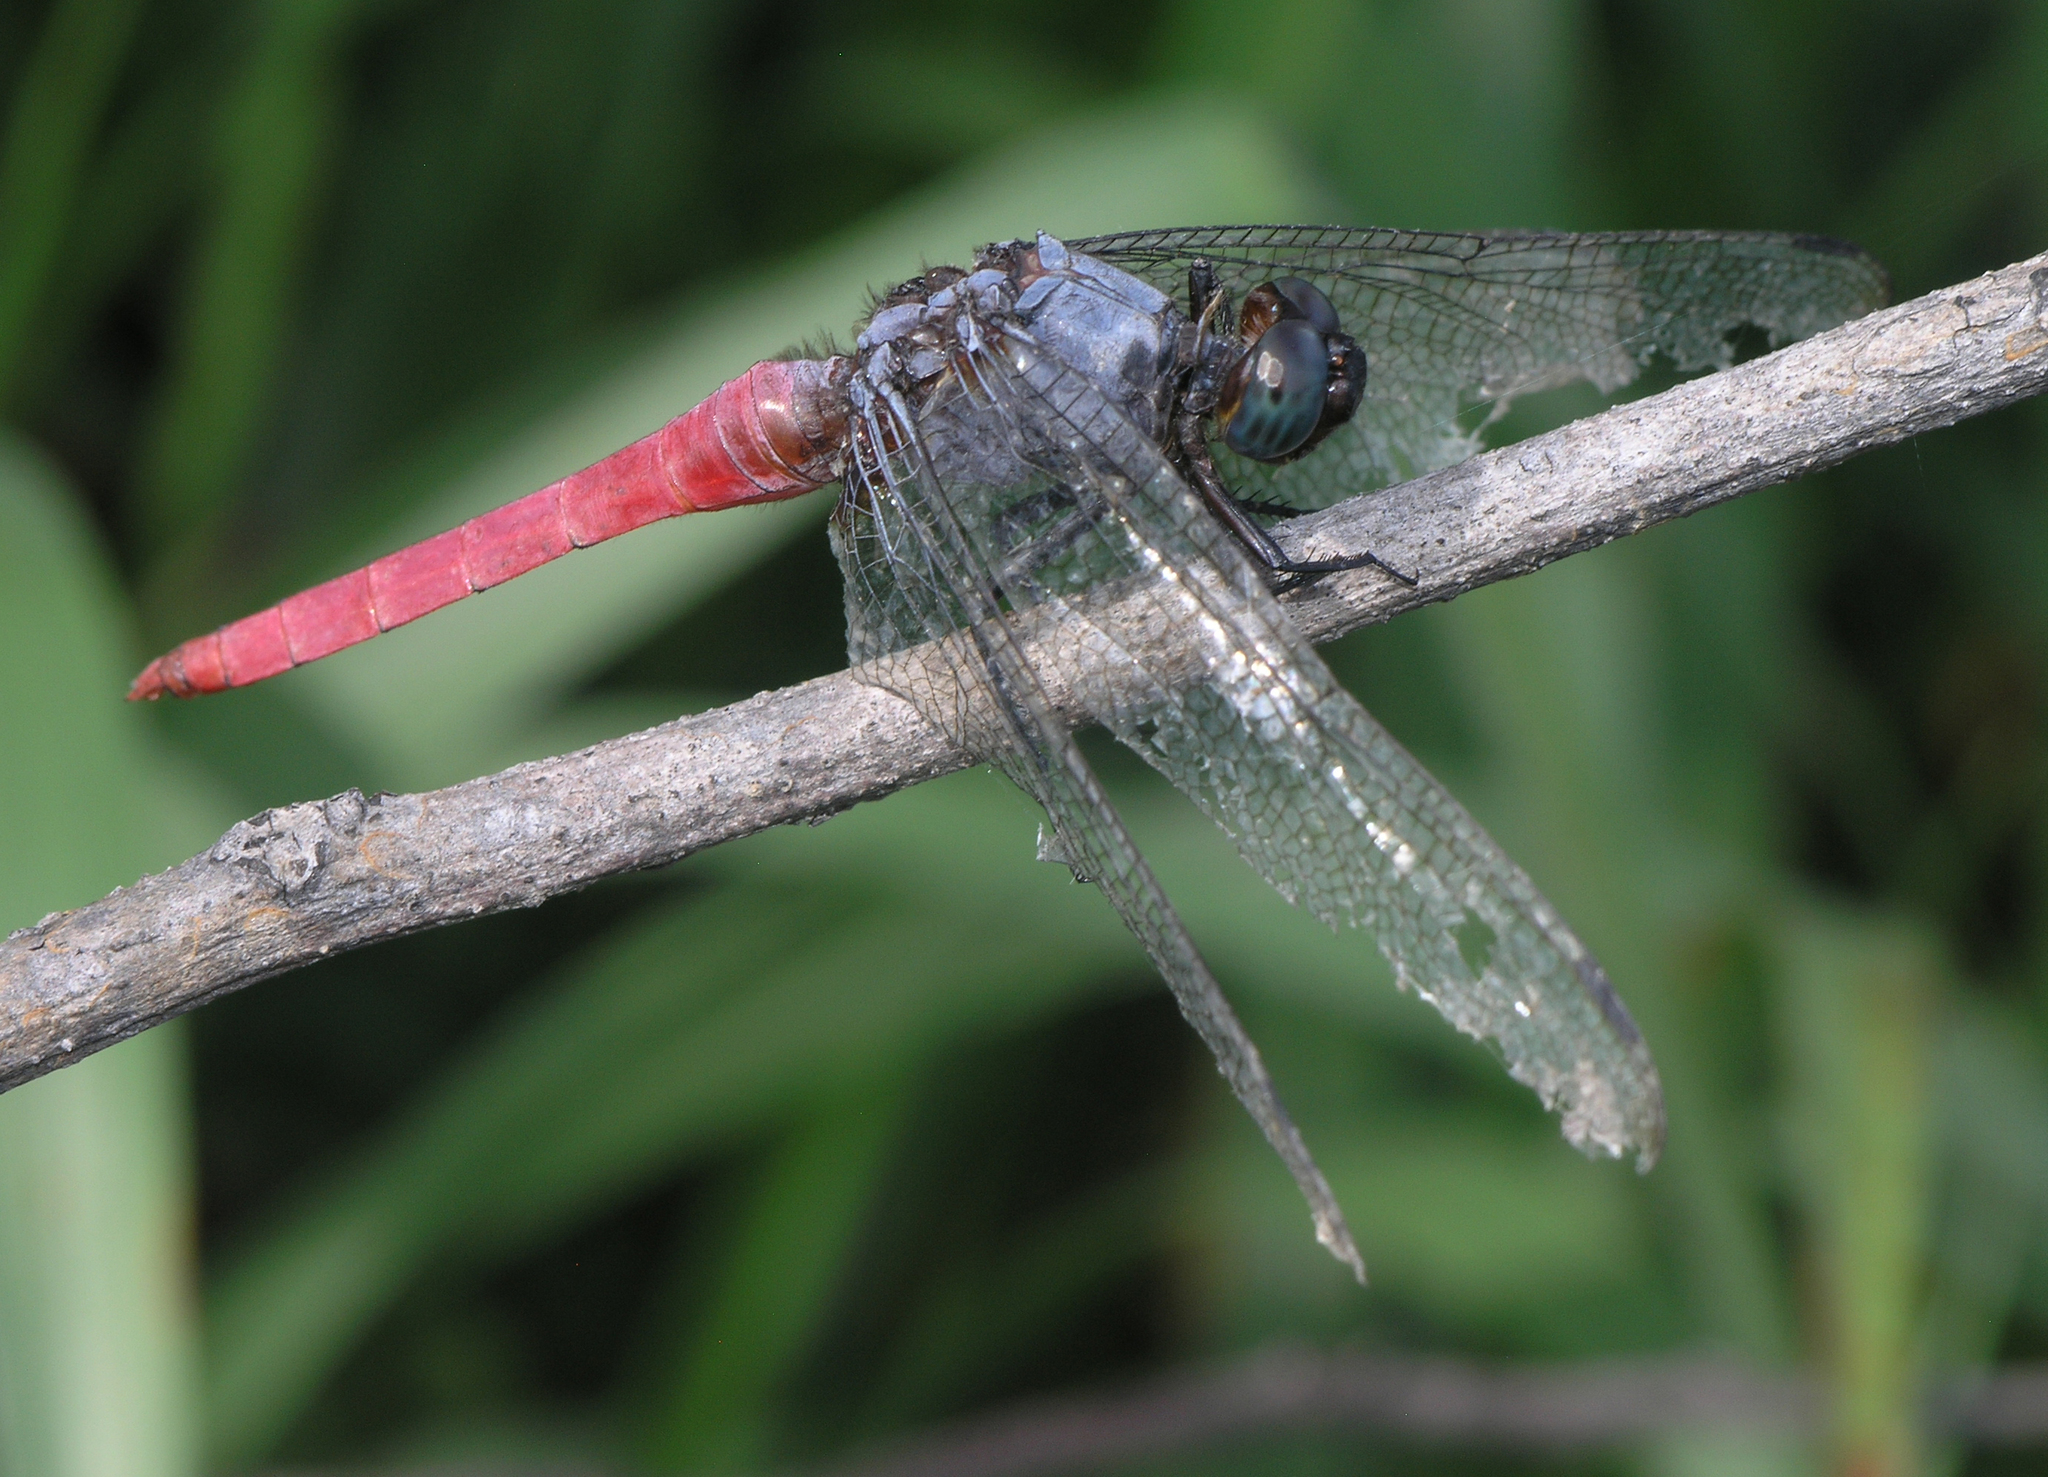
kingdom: Animalia
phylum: Arthropoda
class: Insecta
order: Odonata
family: Libellulidae
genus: Orthetrum
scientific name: Orthetrum pruinosum
